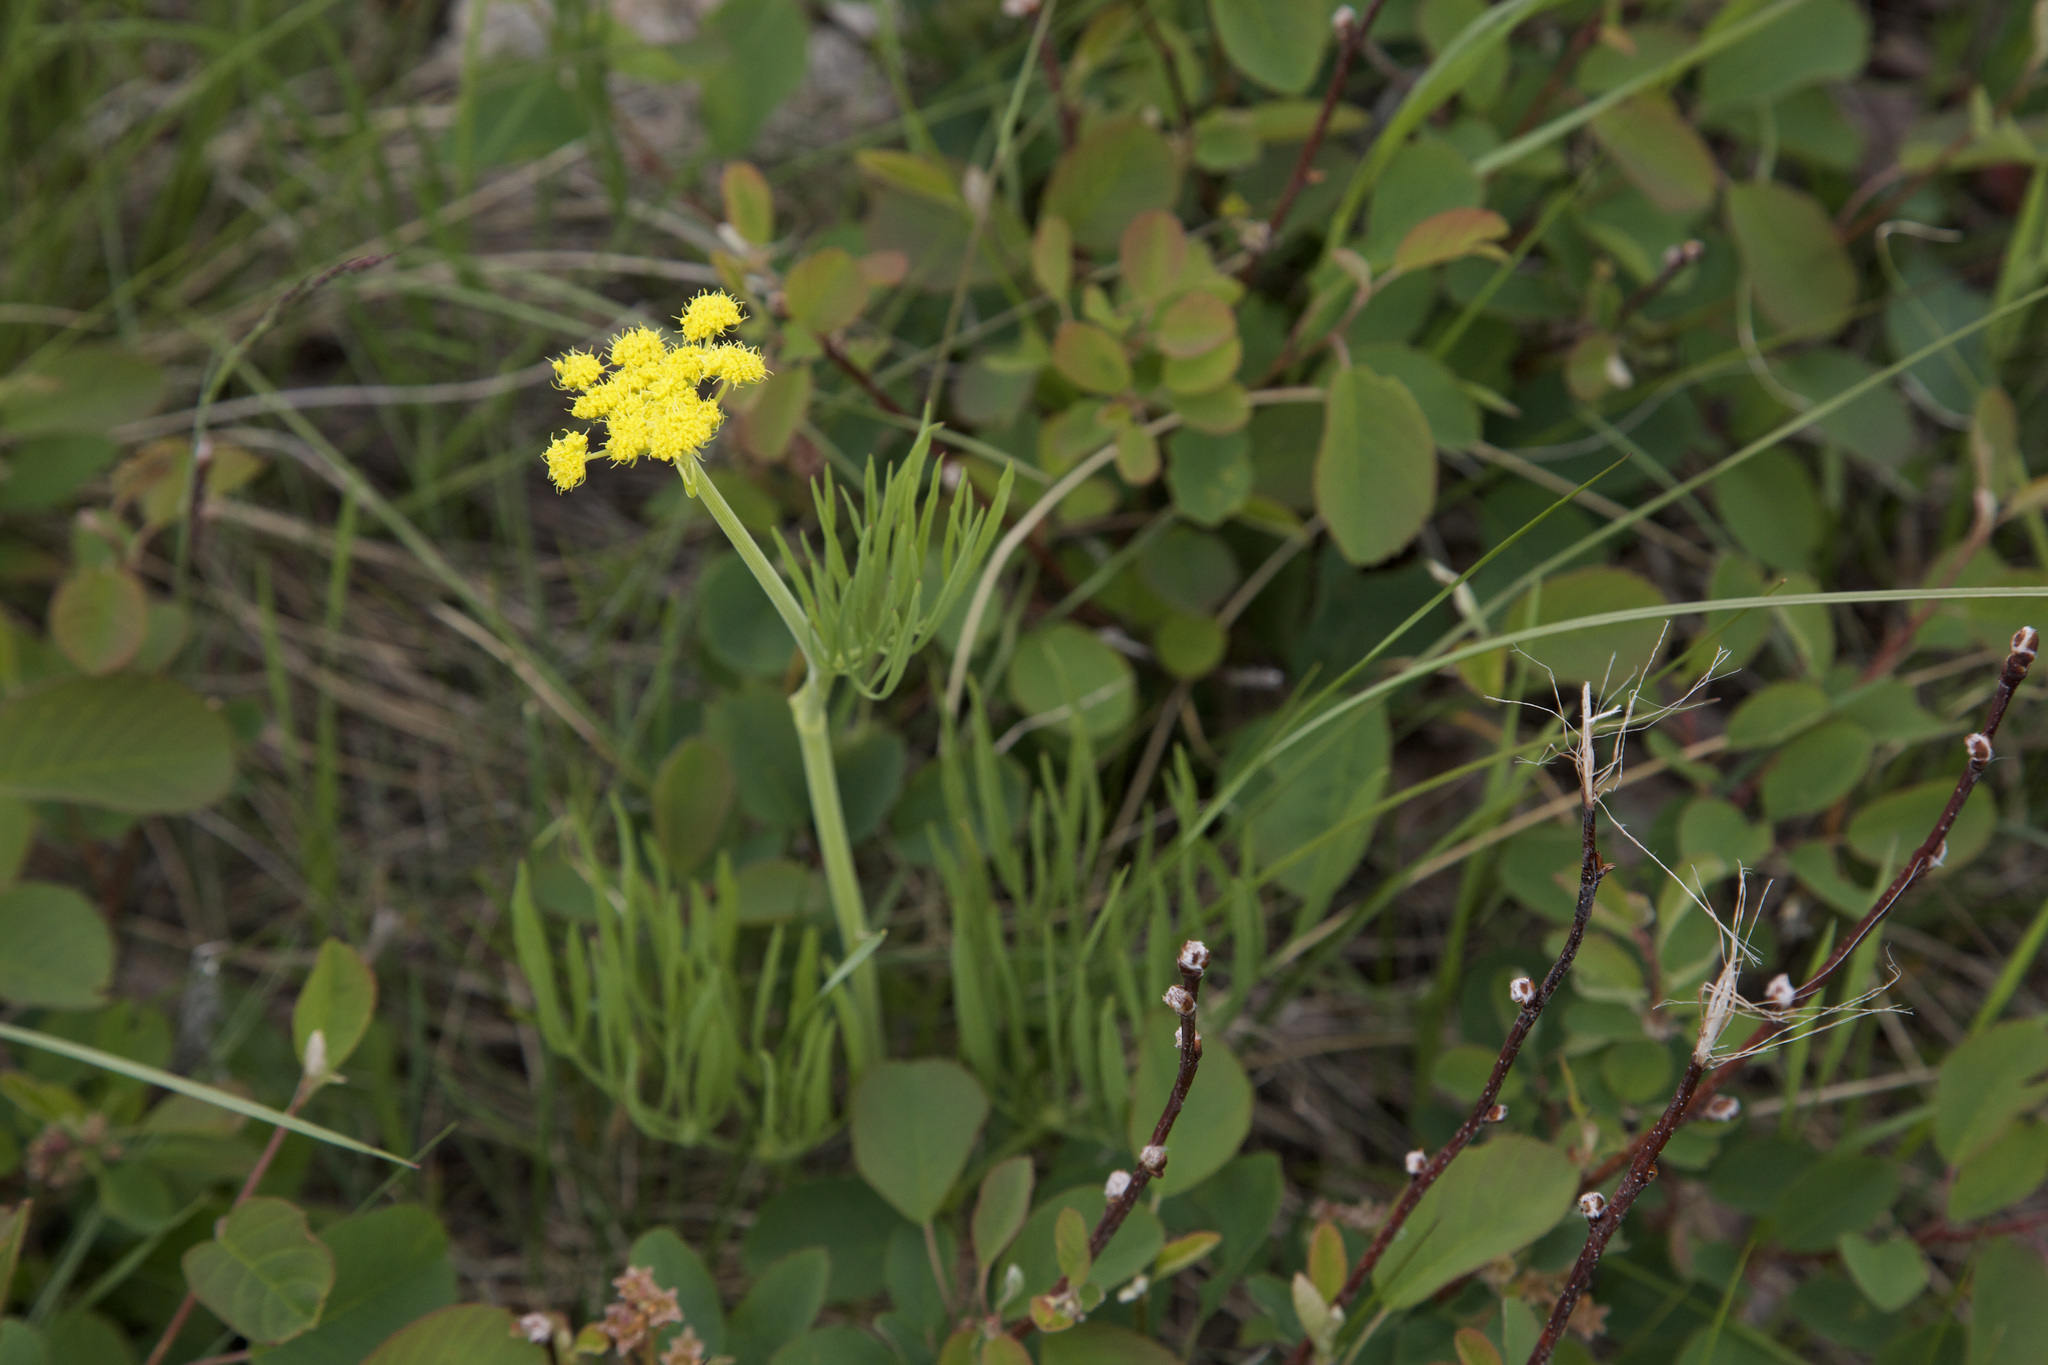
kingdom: Plantae
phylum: Tracheophyta
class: Magnoliopsida
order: Apiales
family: Apiaceae
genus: Lomatium
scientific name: Lomatium triternatum
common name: Ternate lomatium
